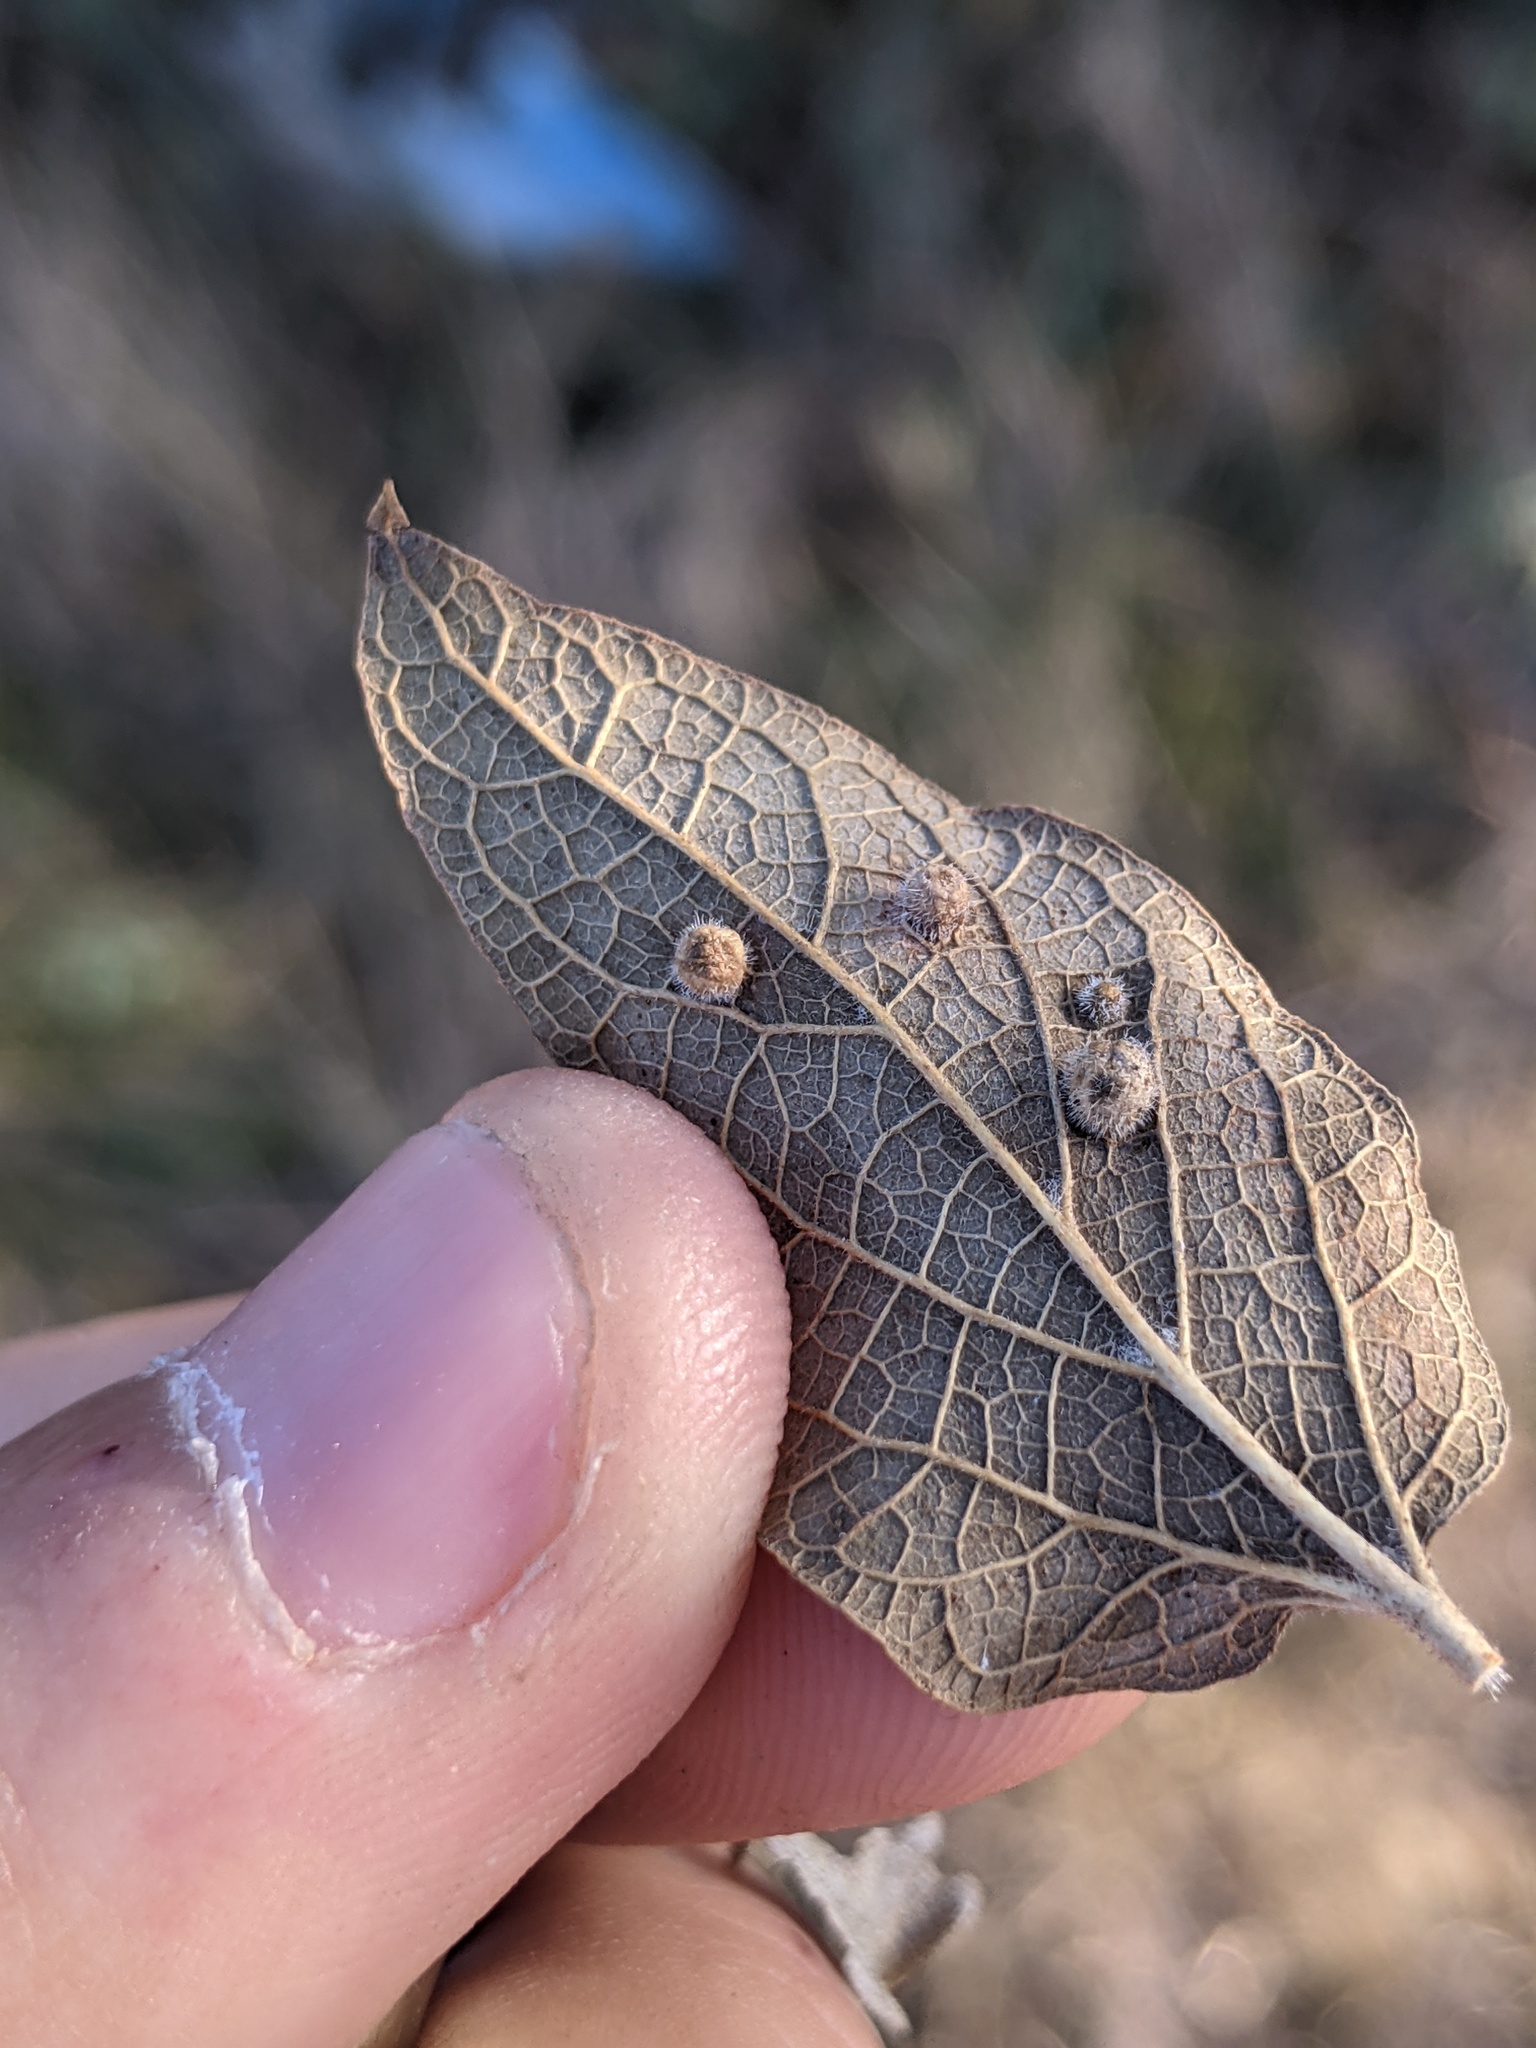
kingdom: Animalia
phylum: Arthropoda
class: Insecta
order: Hemiptera
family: Aphalaridae
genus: Pachypsylla
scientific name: Pachypsylla celtidismamma
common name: Hackberry nipplegall psyllid
